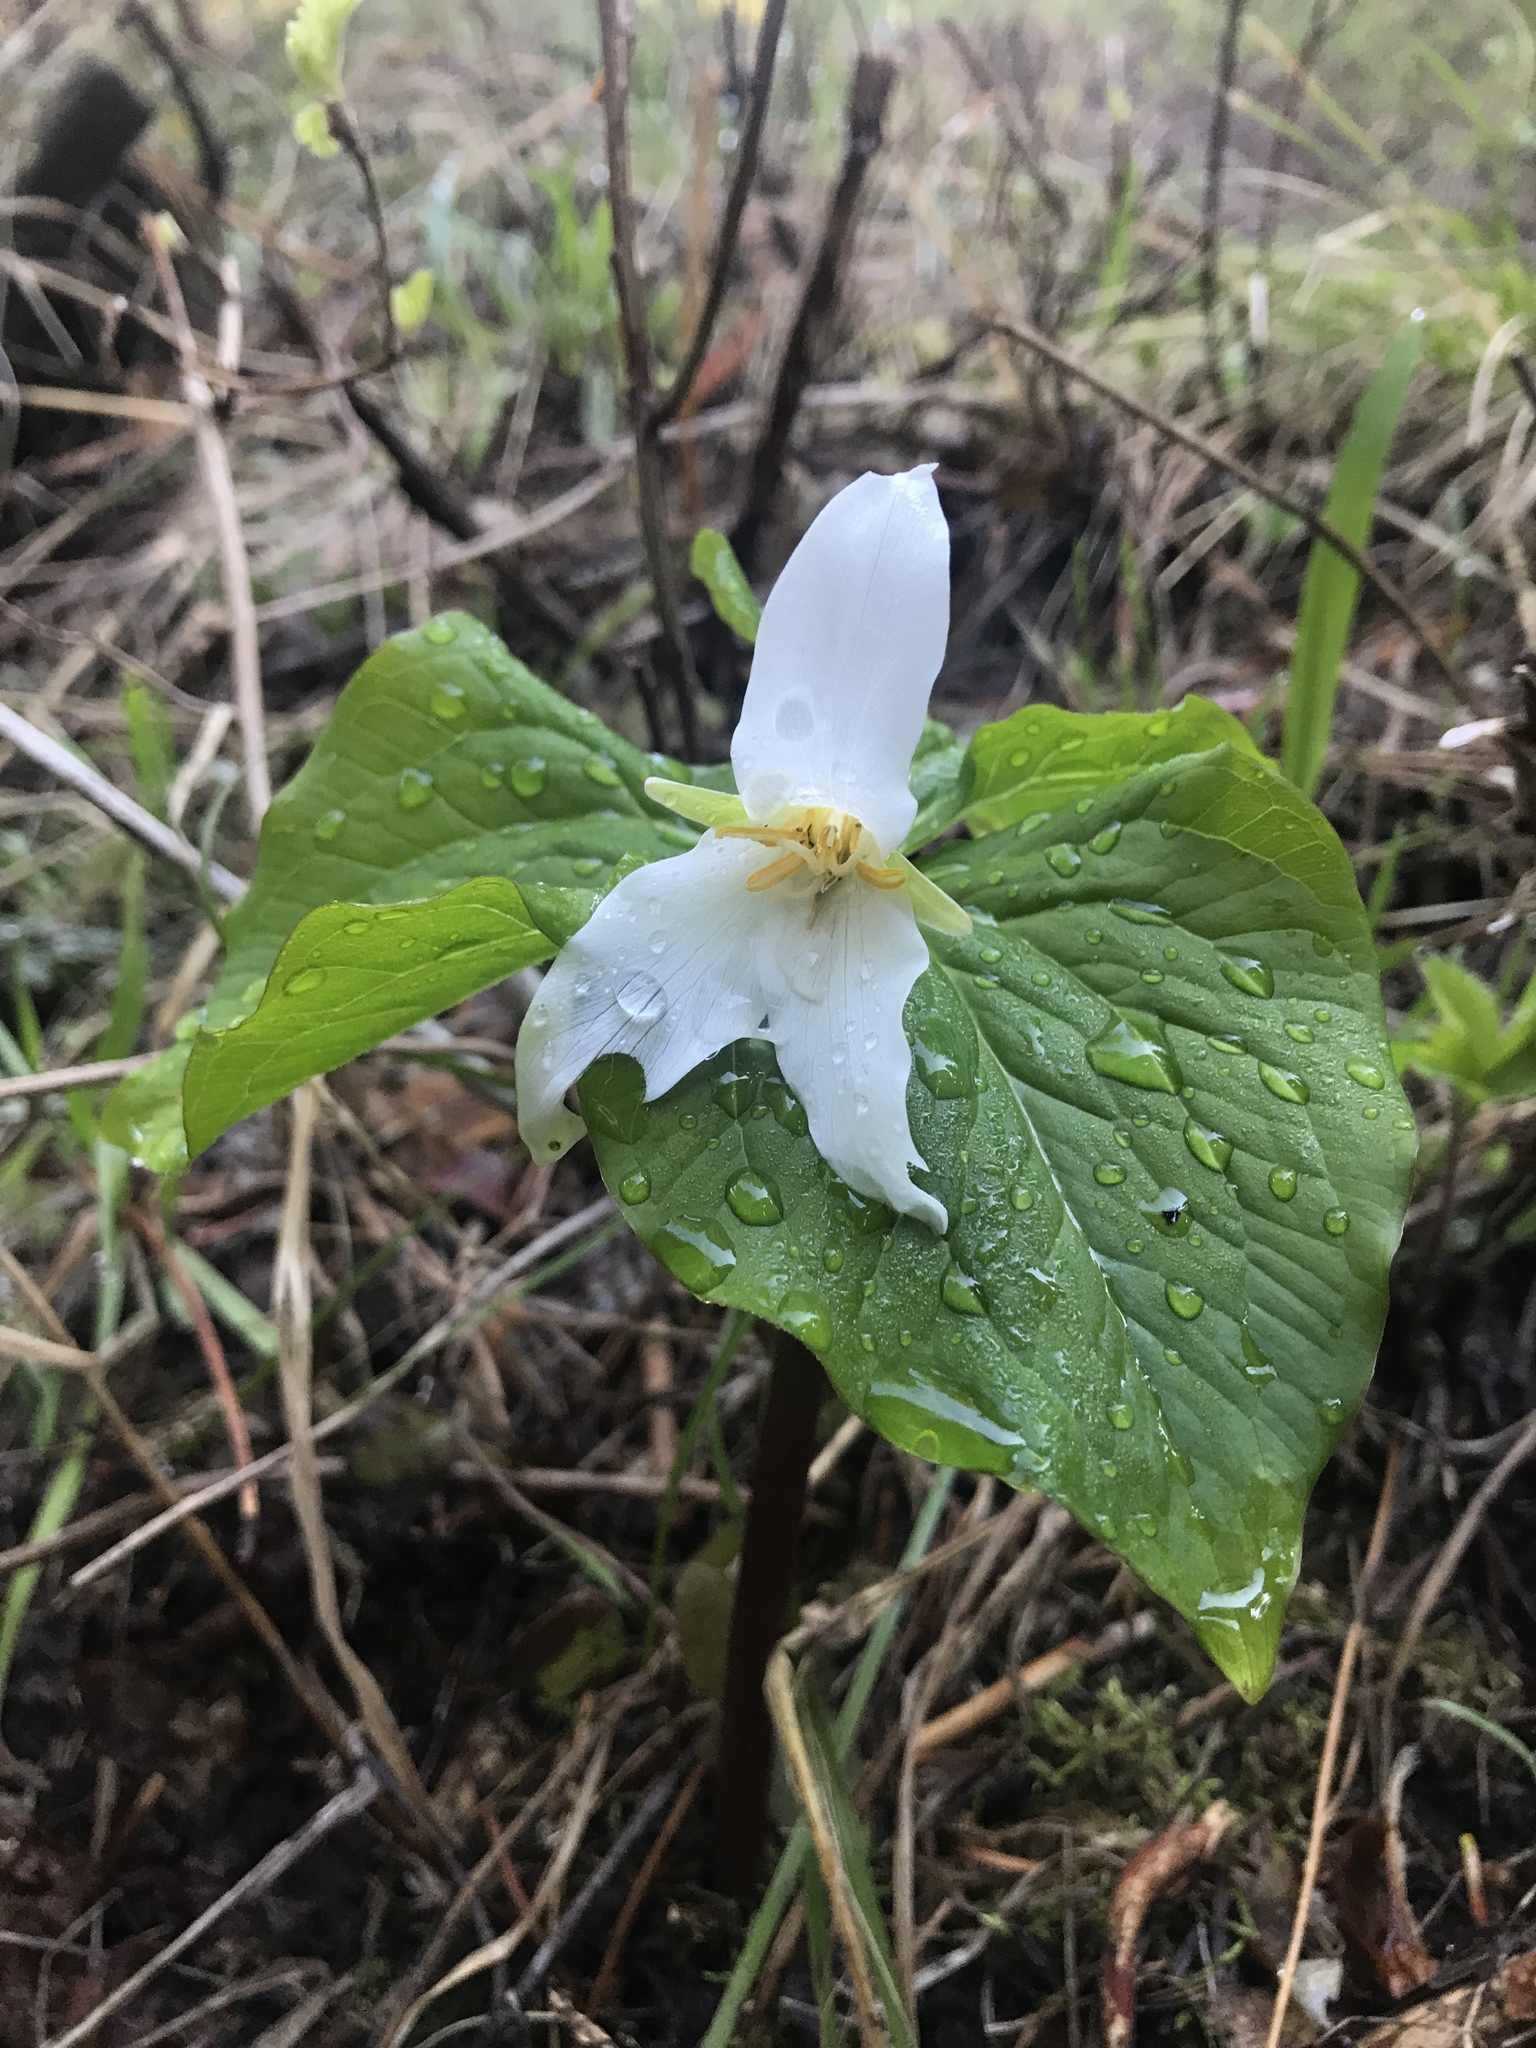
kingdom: Plantae
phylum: Tracheophyta
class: Liliopsida
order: Liliales
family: Melanthiaceae
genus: Trillium
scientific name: Trillium ovatum
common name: Pacific trillium
